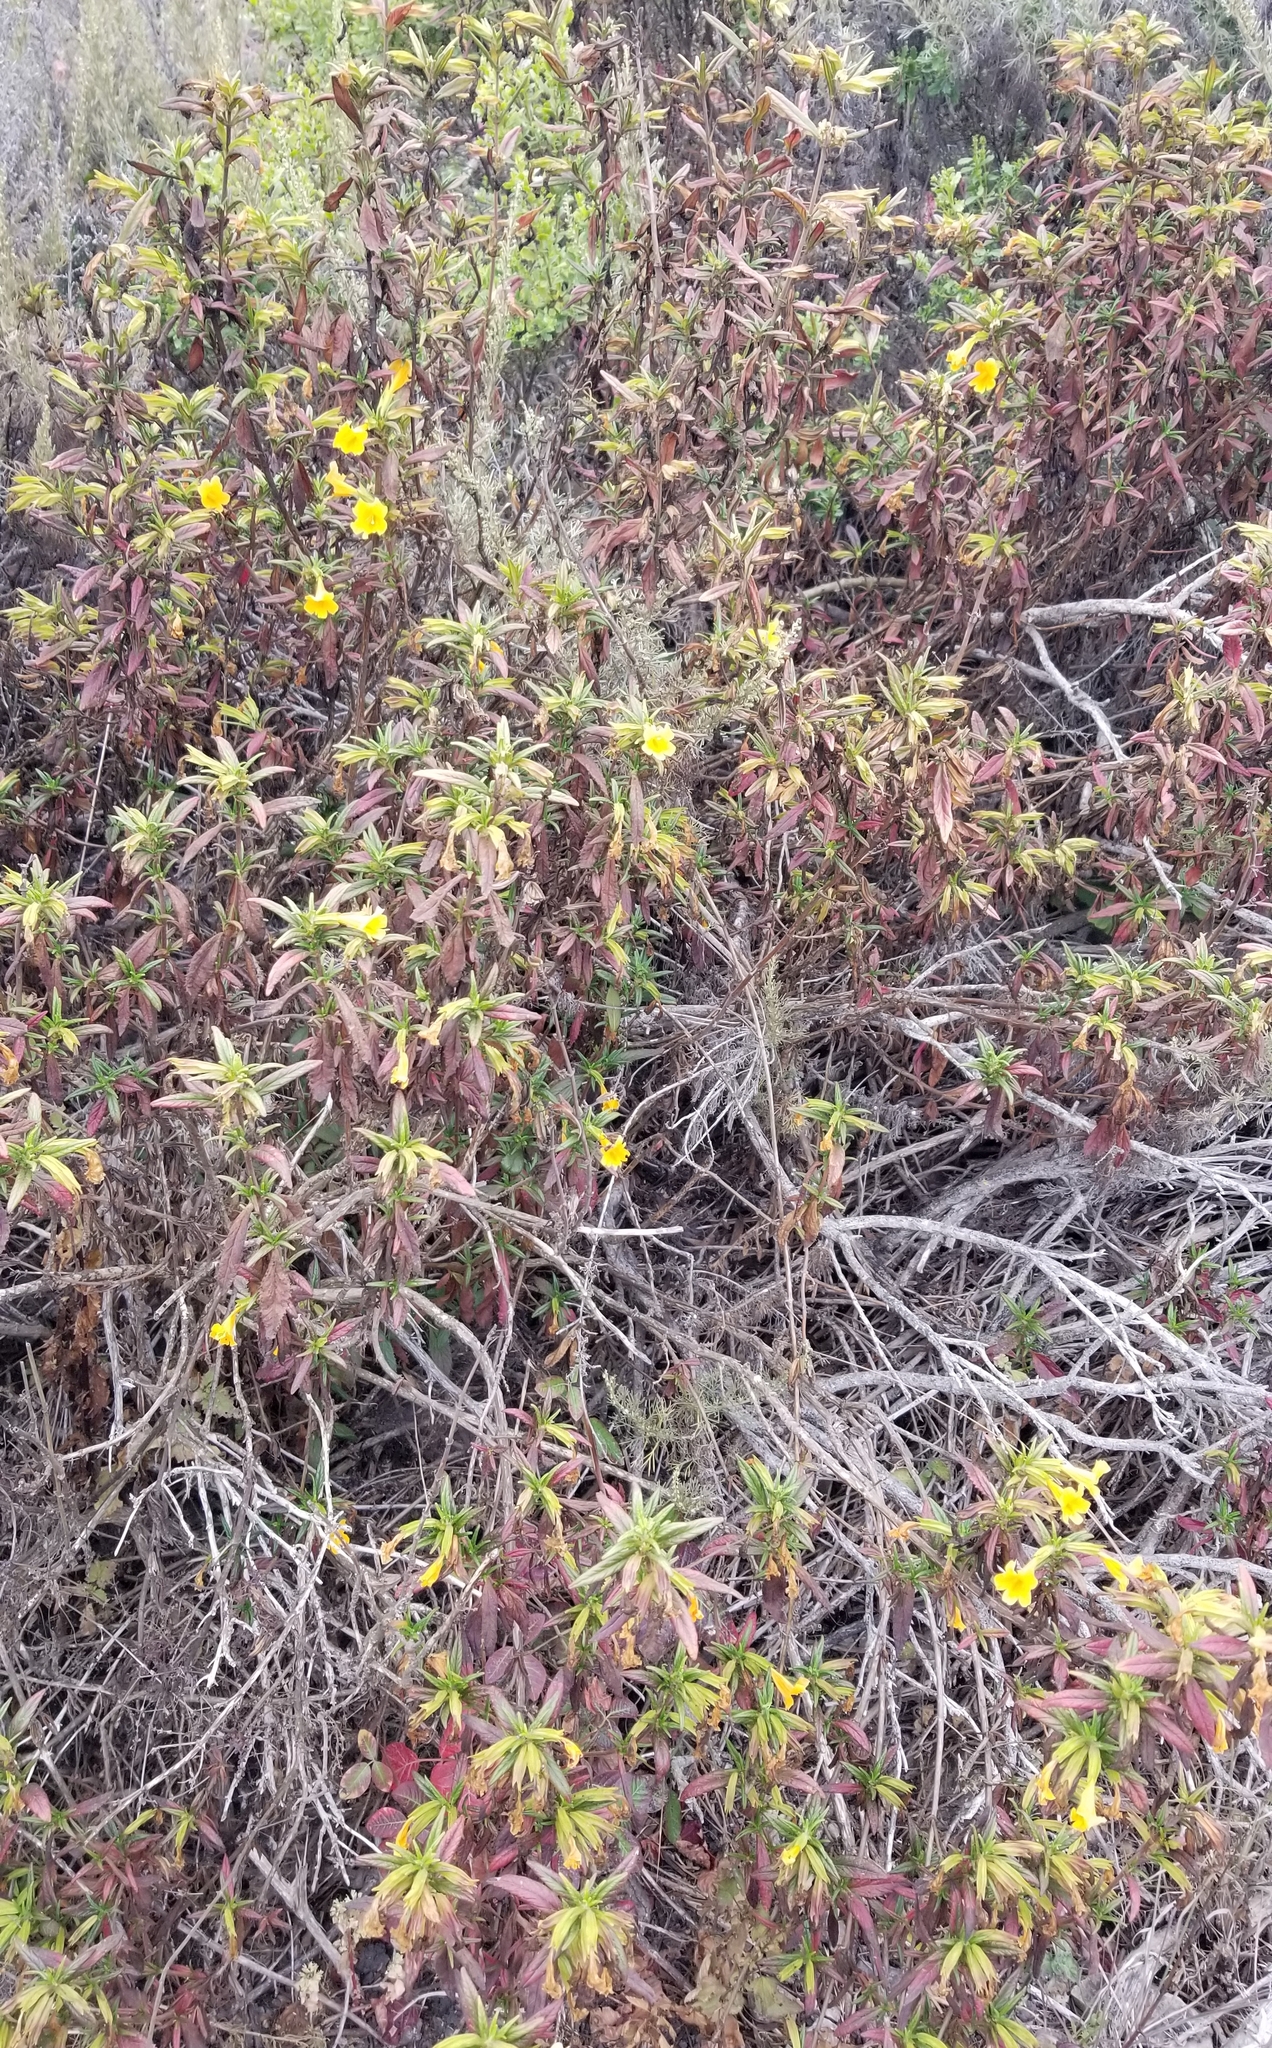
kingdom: Plantae
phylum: Tracheophyta
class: Magnoliopsida
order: Lamiales
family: Phrymaceae
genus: Diplacus
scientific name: Diplacus aurantiacus
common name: Bush monkey-flower
